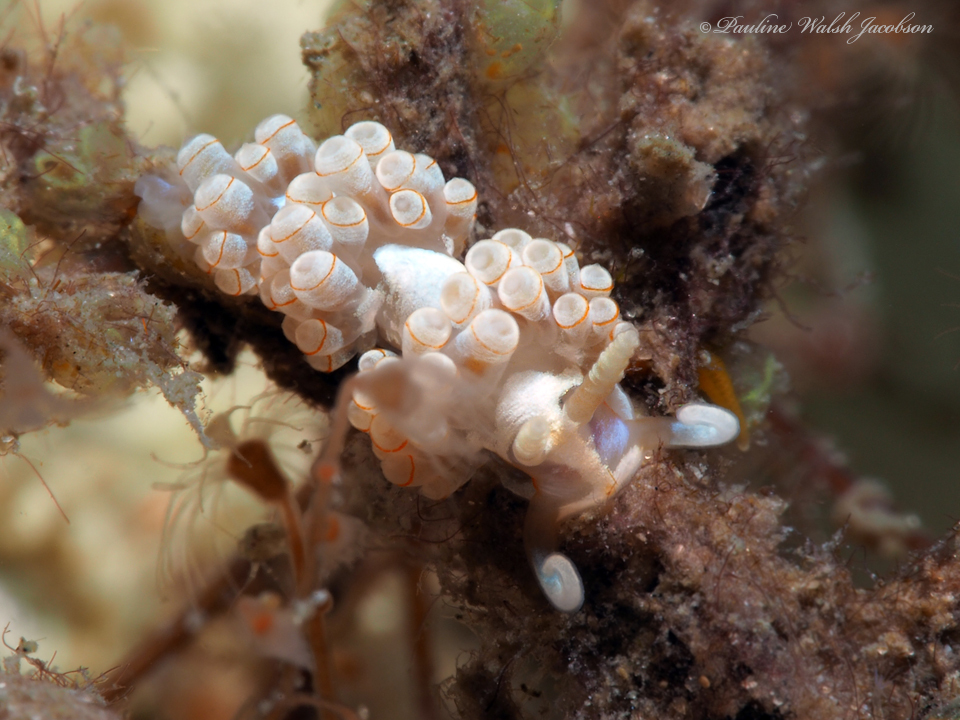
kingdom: Animalia
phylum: Mollusca
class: Gastropoda
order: Nudibranchia
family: Myrrhinidae
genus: Dondice
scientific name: Dondice freddiemercuryi
